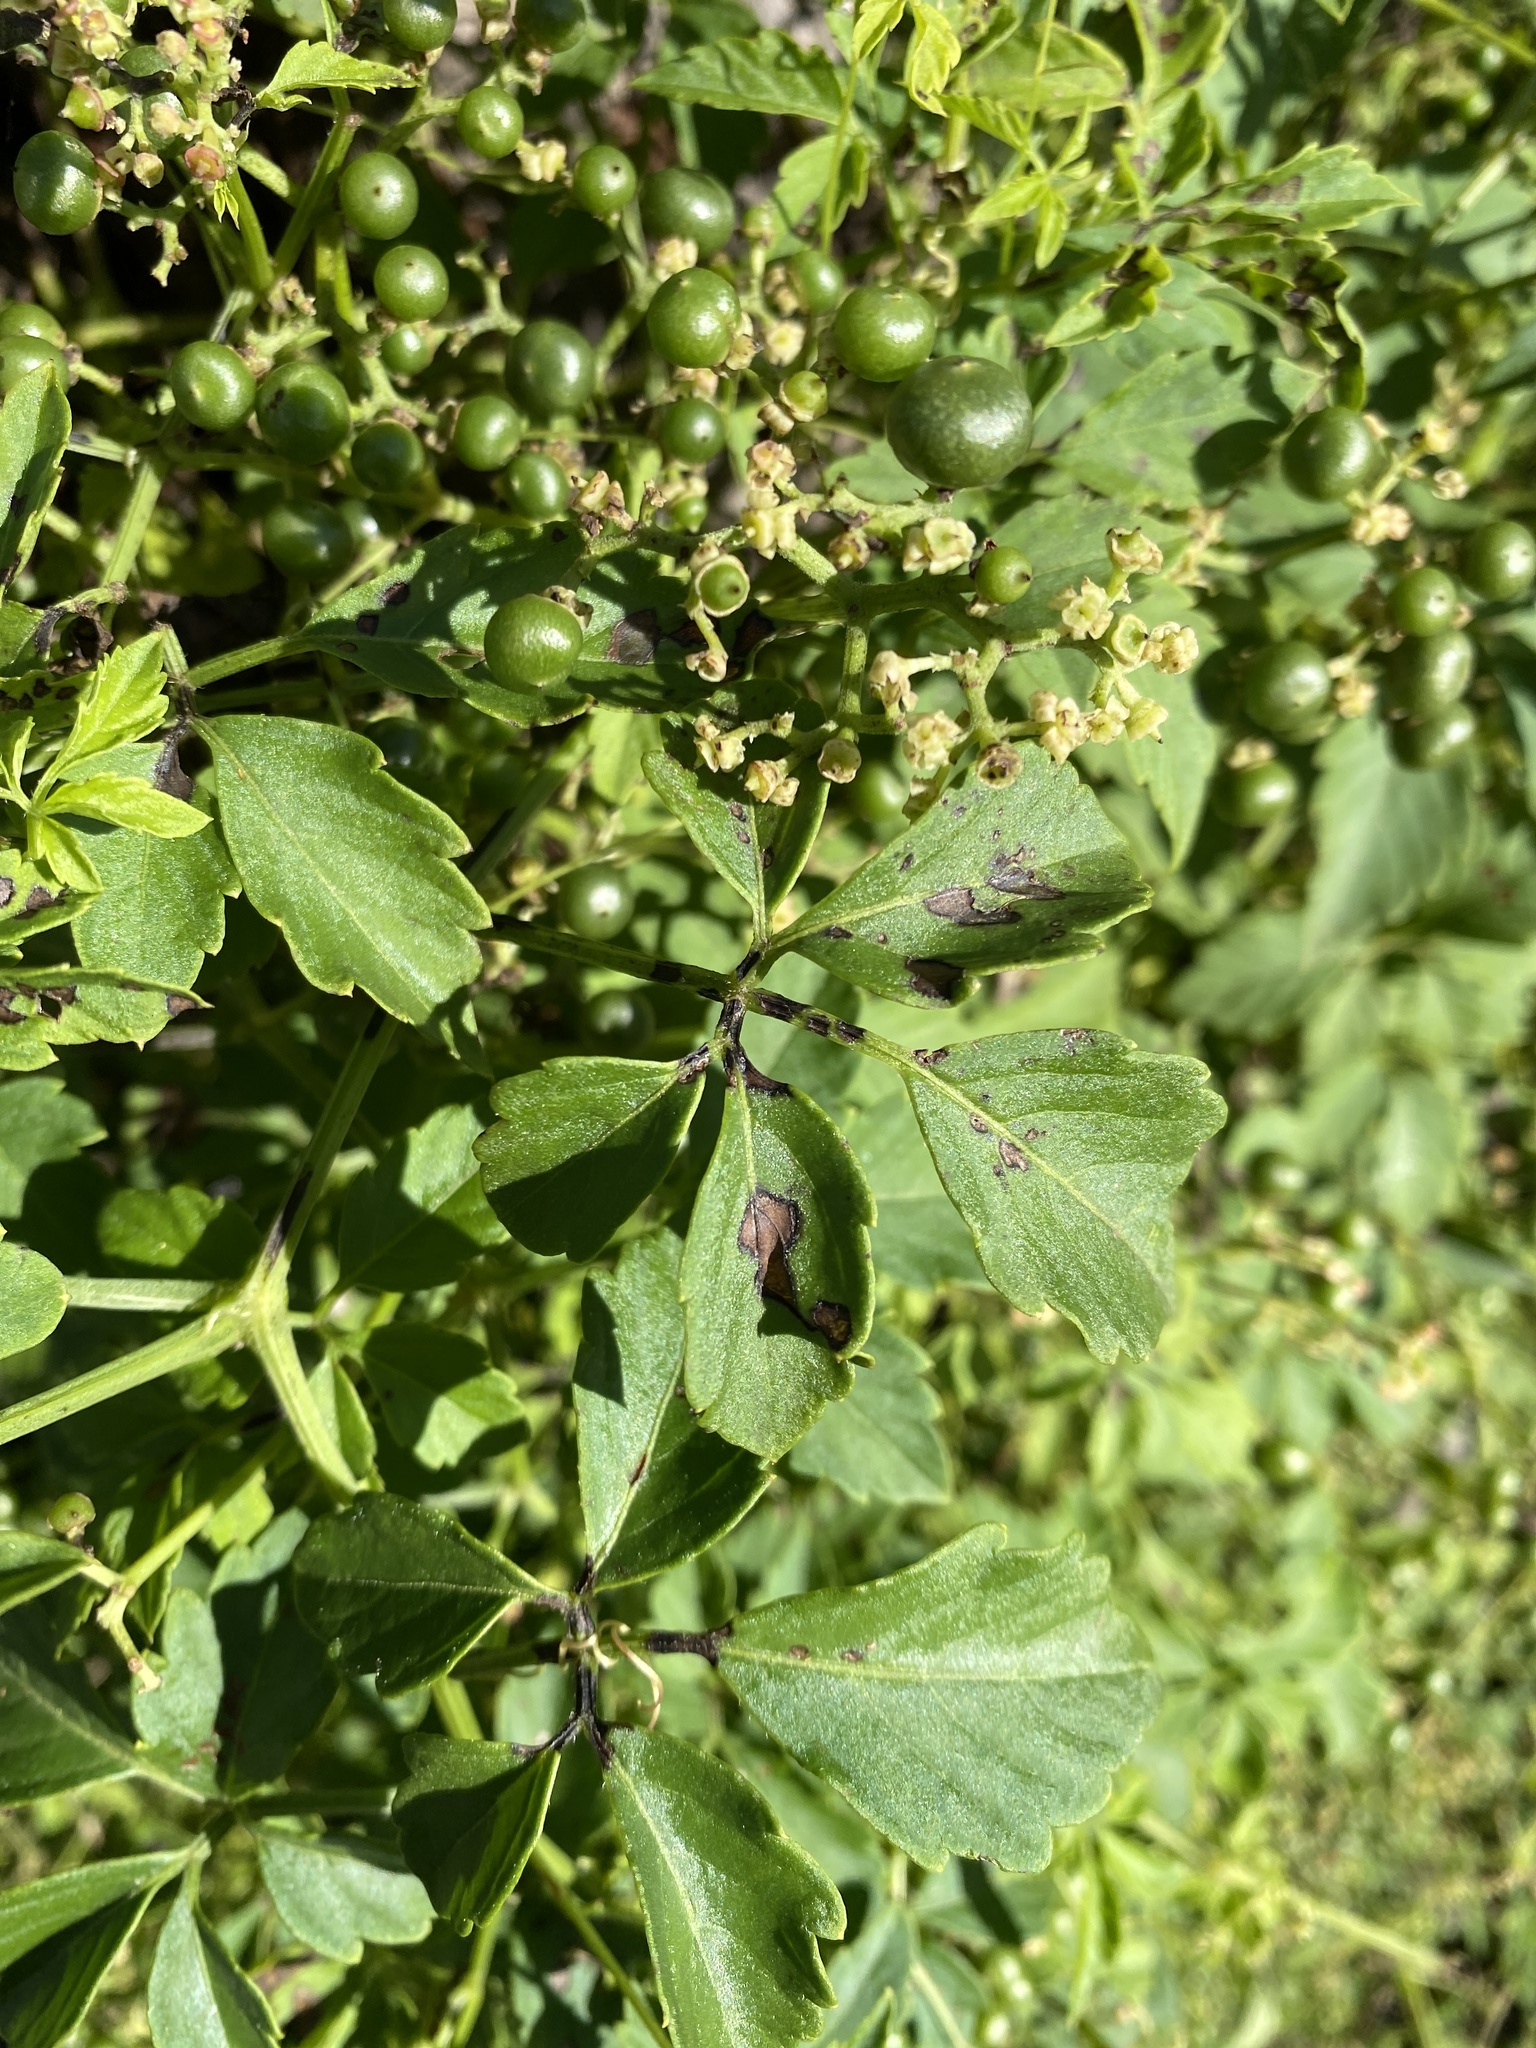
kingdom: Plantae
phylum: Tracheophyta
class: Magnoliopsida
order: Vitales
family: Vitaceae
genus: Causonis
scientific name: Causonis clematidea
